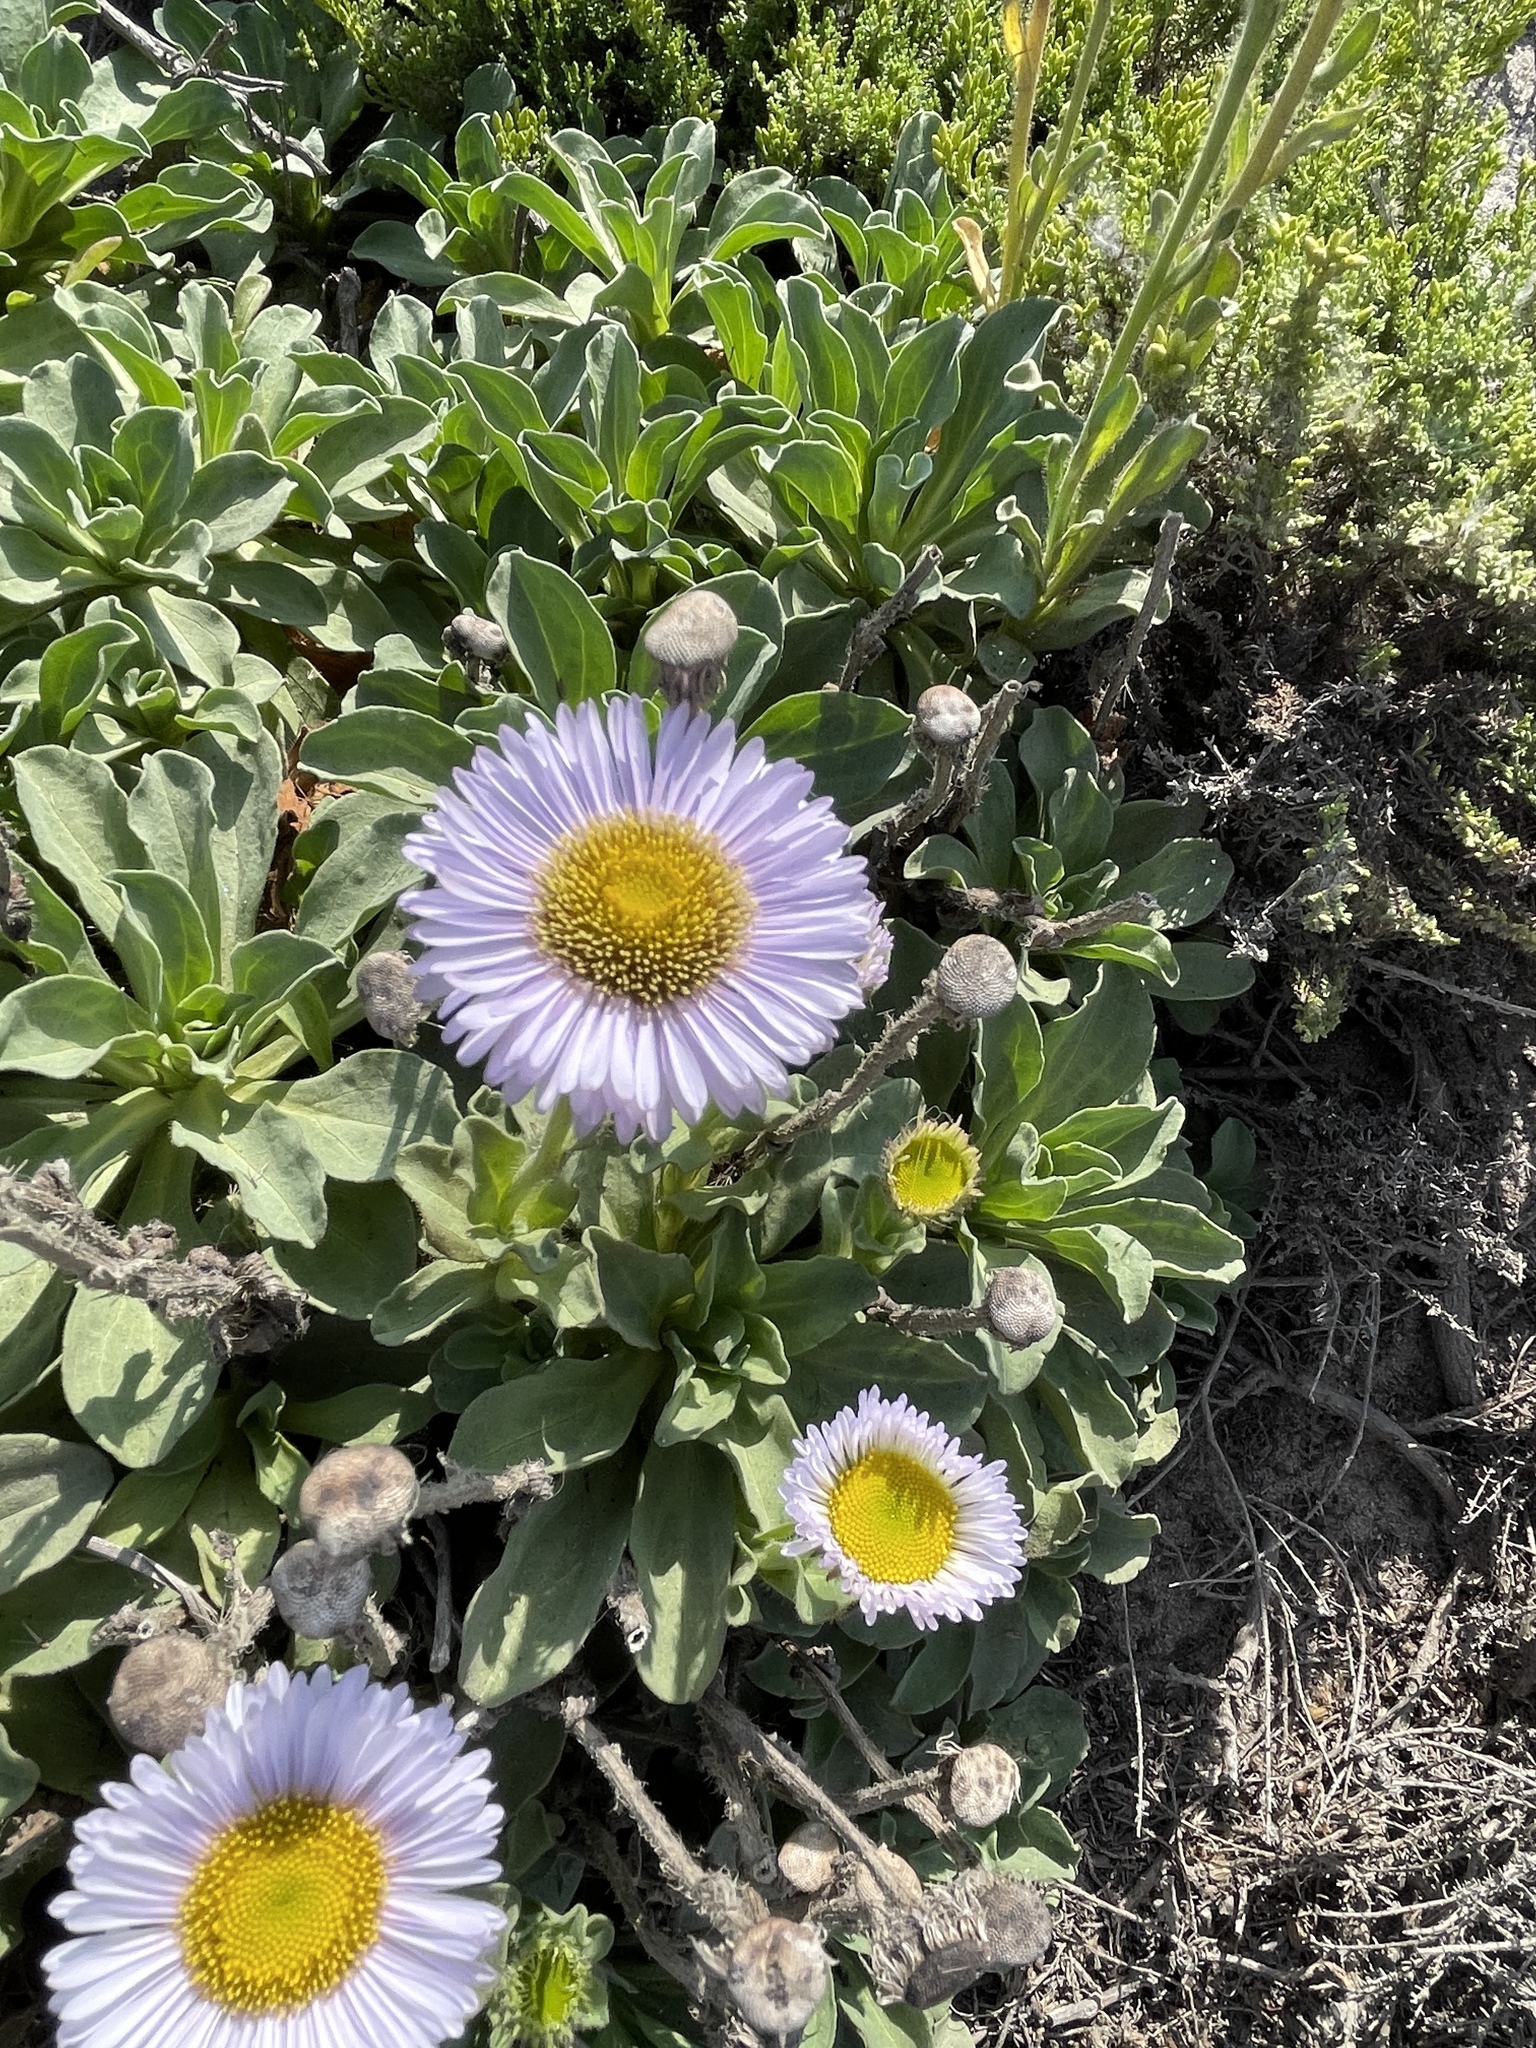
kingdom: Plantae
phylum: Tracheophyta
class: Magnoliopsida
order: Asterales
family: Asteraceae
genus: Erigeron
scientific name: Erigeron glaucus
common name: Seaside daisy
